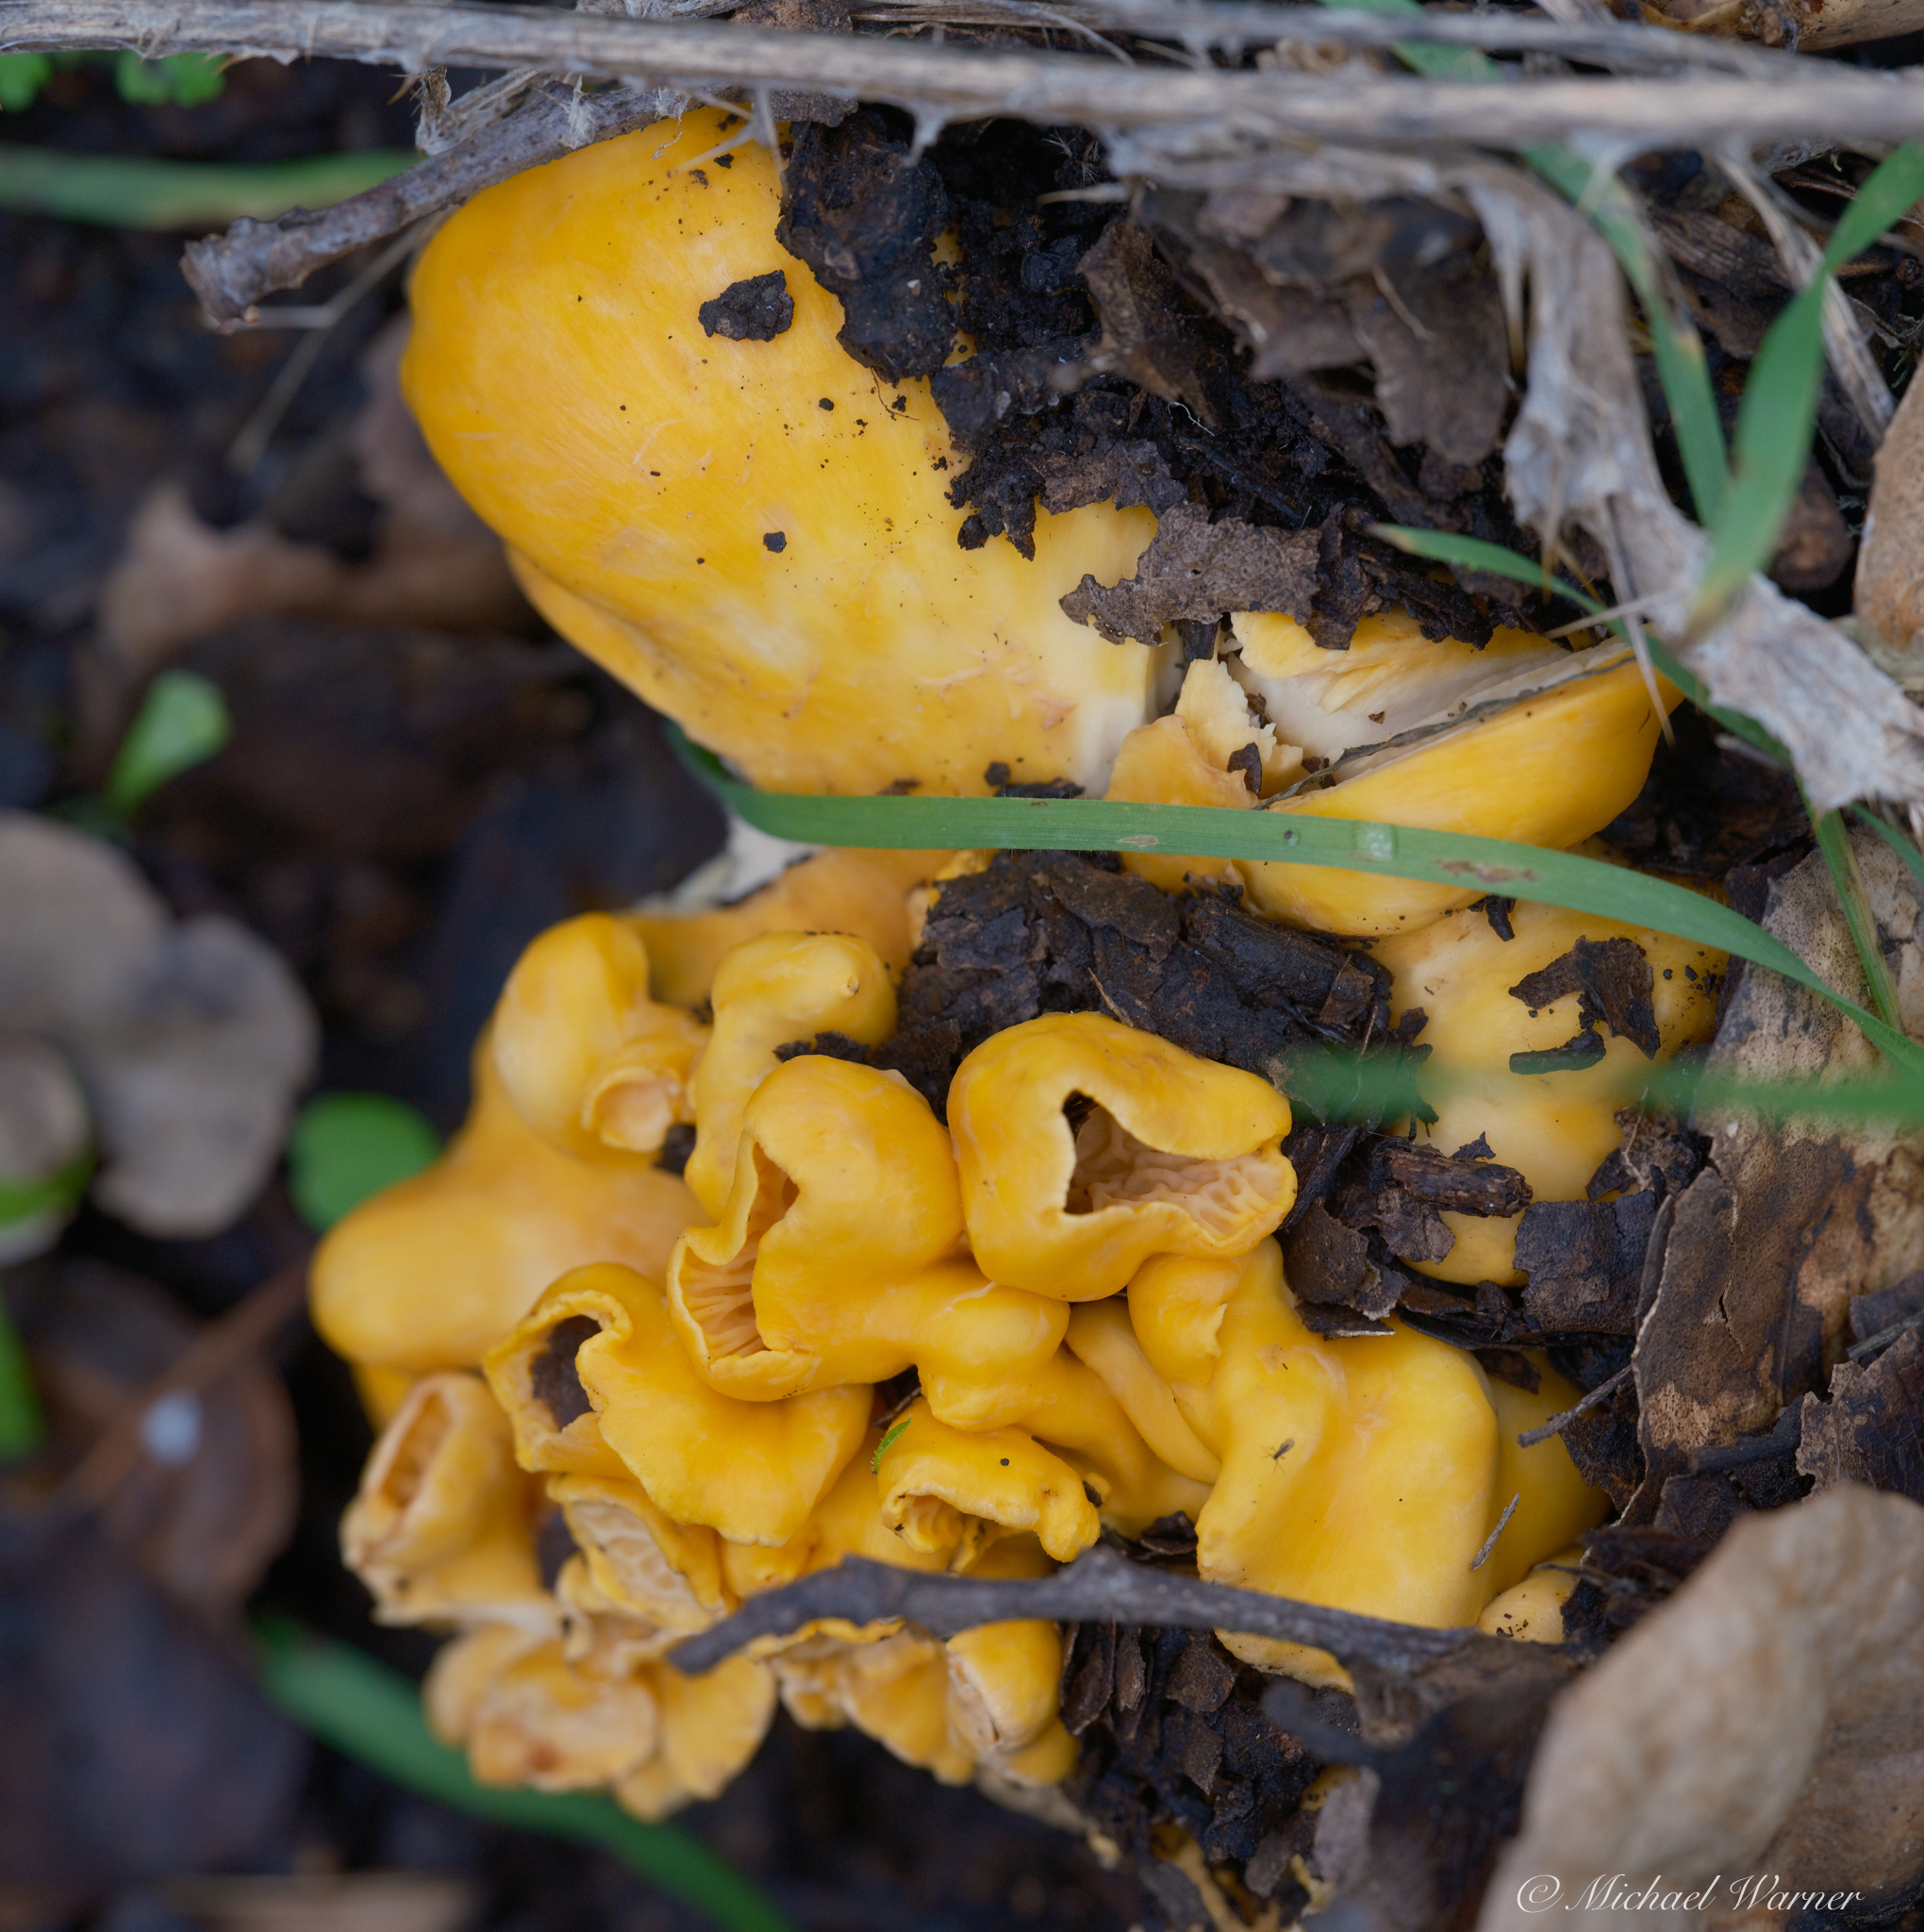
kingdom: Fungi
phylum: Basidiomycota
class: Agaricomycetes
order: Cantharellales
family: Hydnaceae
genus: Cantharellus
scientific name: Cantharellus californicus
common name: California golden chanterelle
